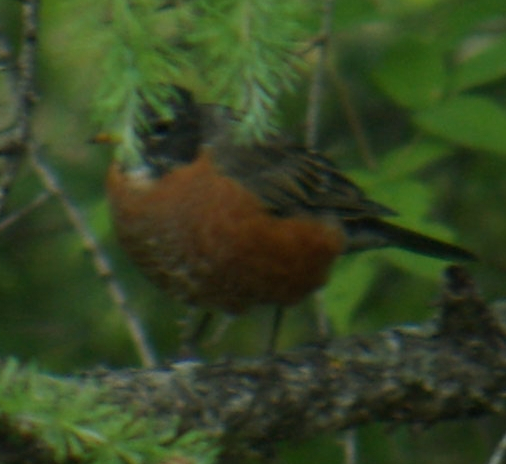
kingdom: Animalia
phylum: Chordata
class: Aves
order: Passeriformes
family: Turdidae
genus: Turdus
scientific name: Turdus migratorius
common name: American robin
